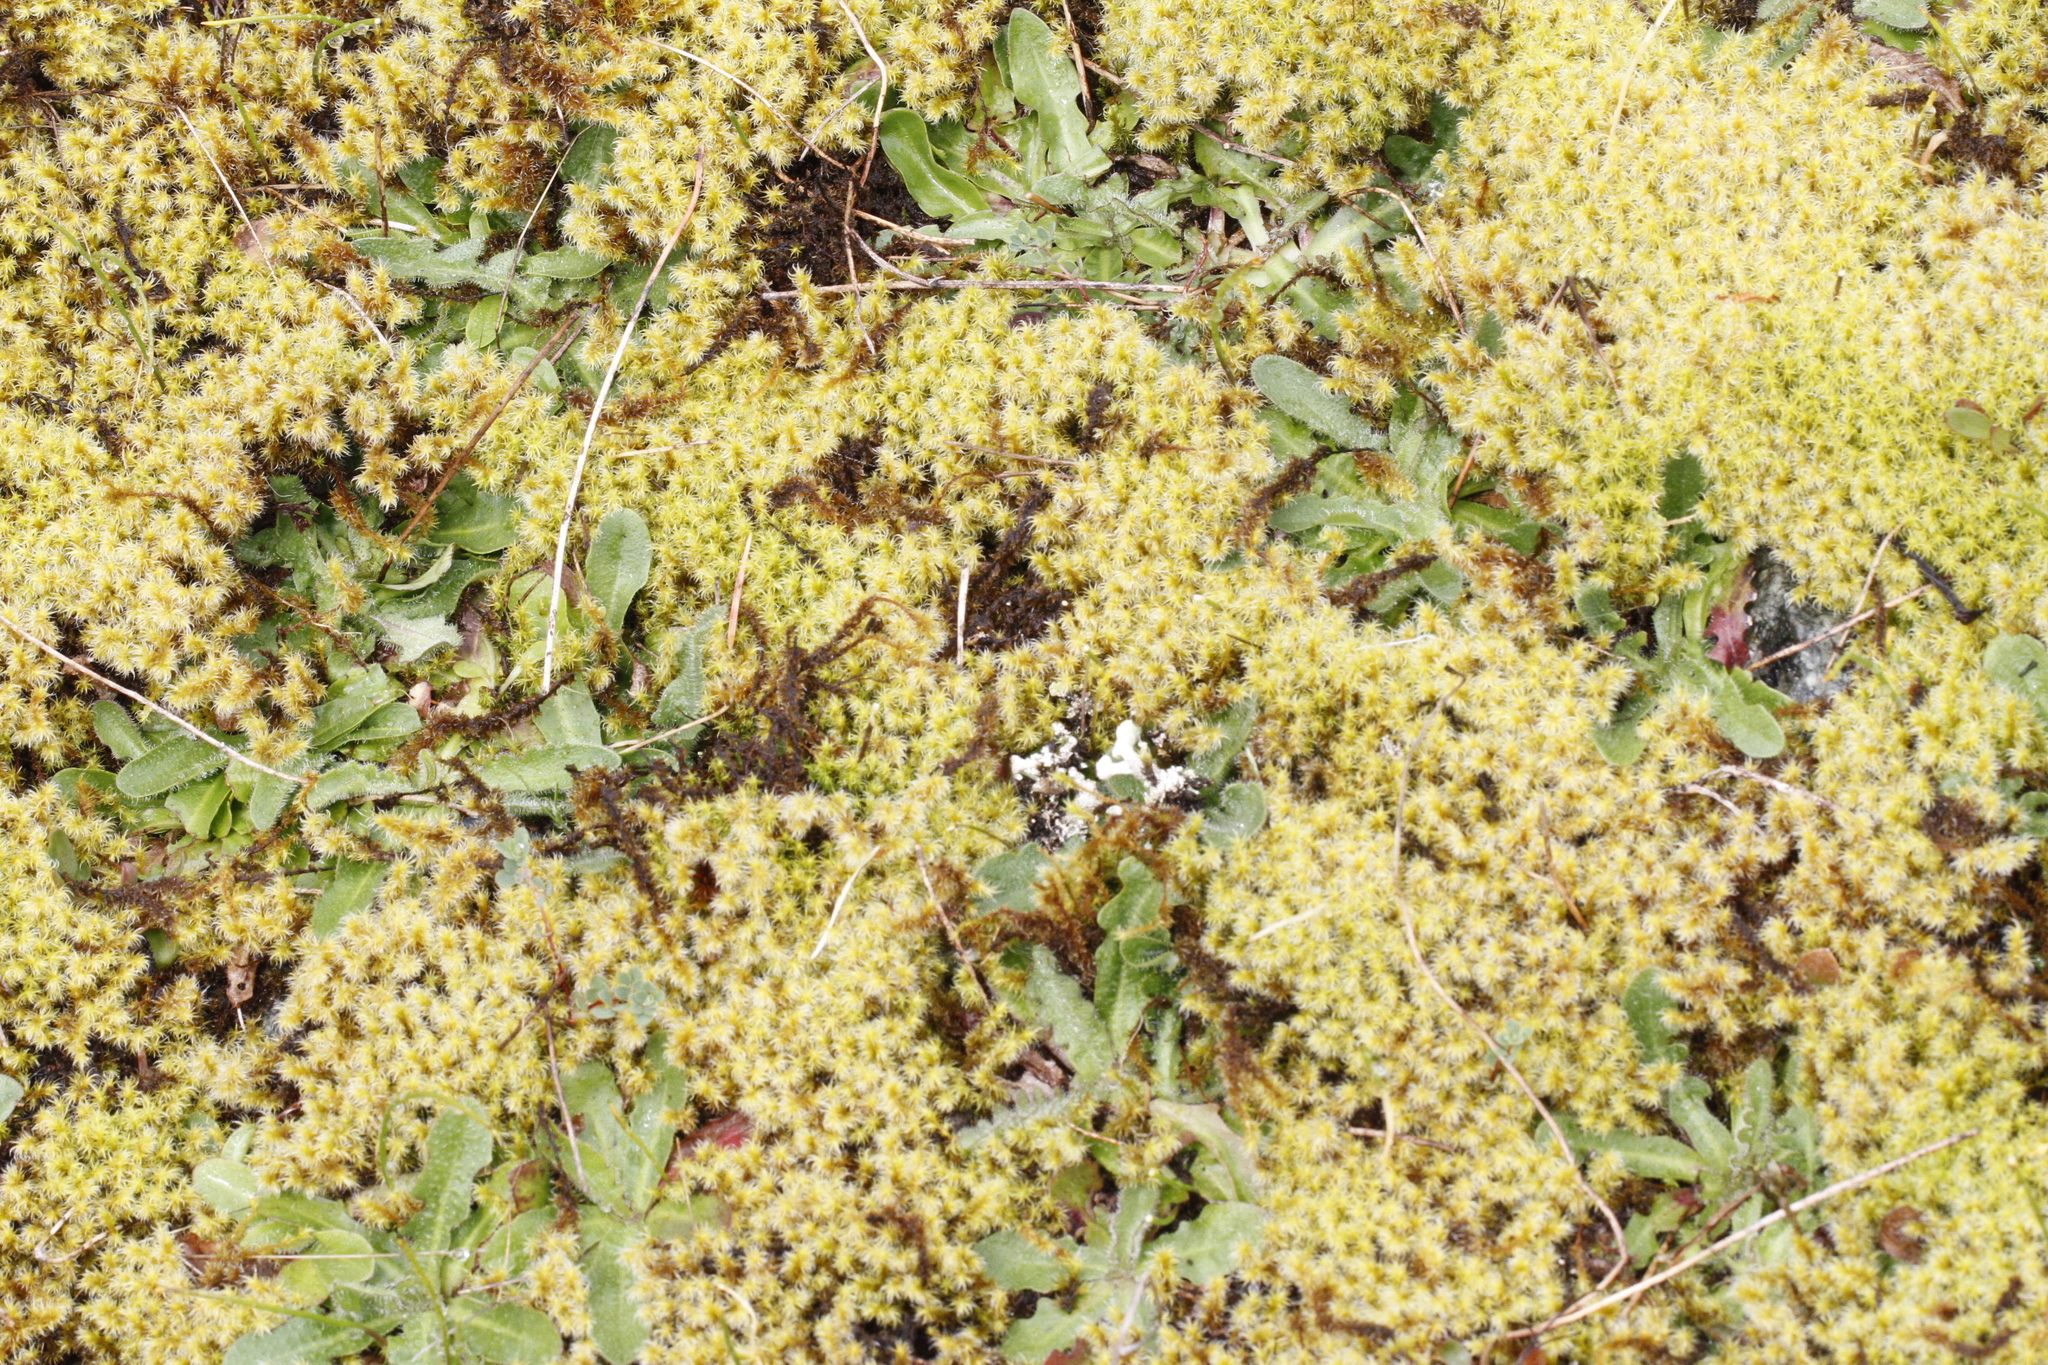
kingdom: Plantae
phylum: Tracheophyta
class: Magnoliopsida
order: Asterales
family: Asteraceae
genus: Hypochaeris
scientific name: Hypochaeris radicata
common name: Flatweed
